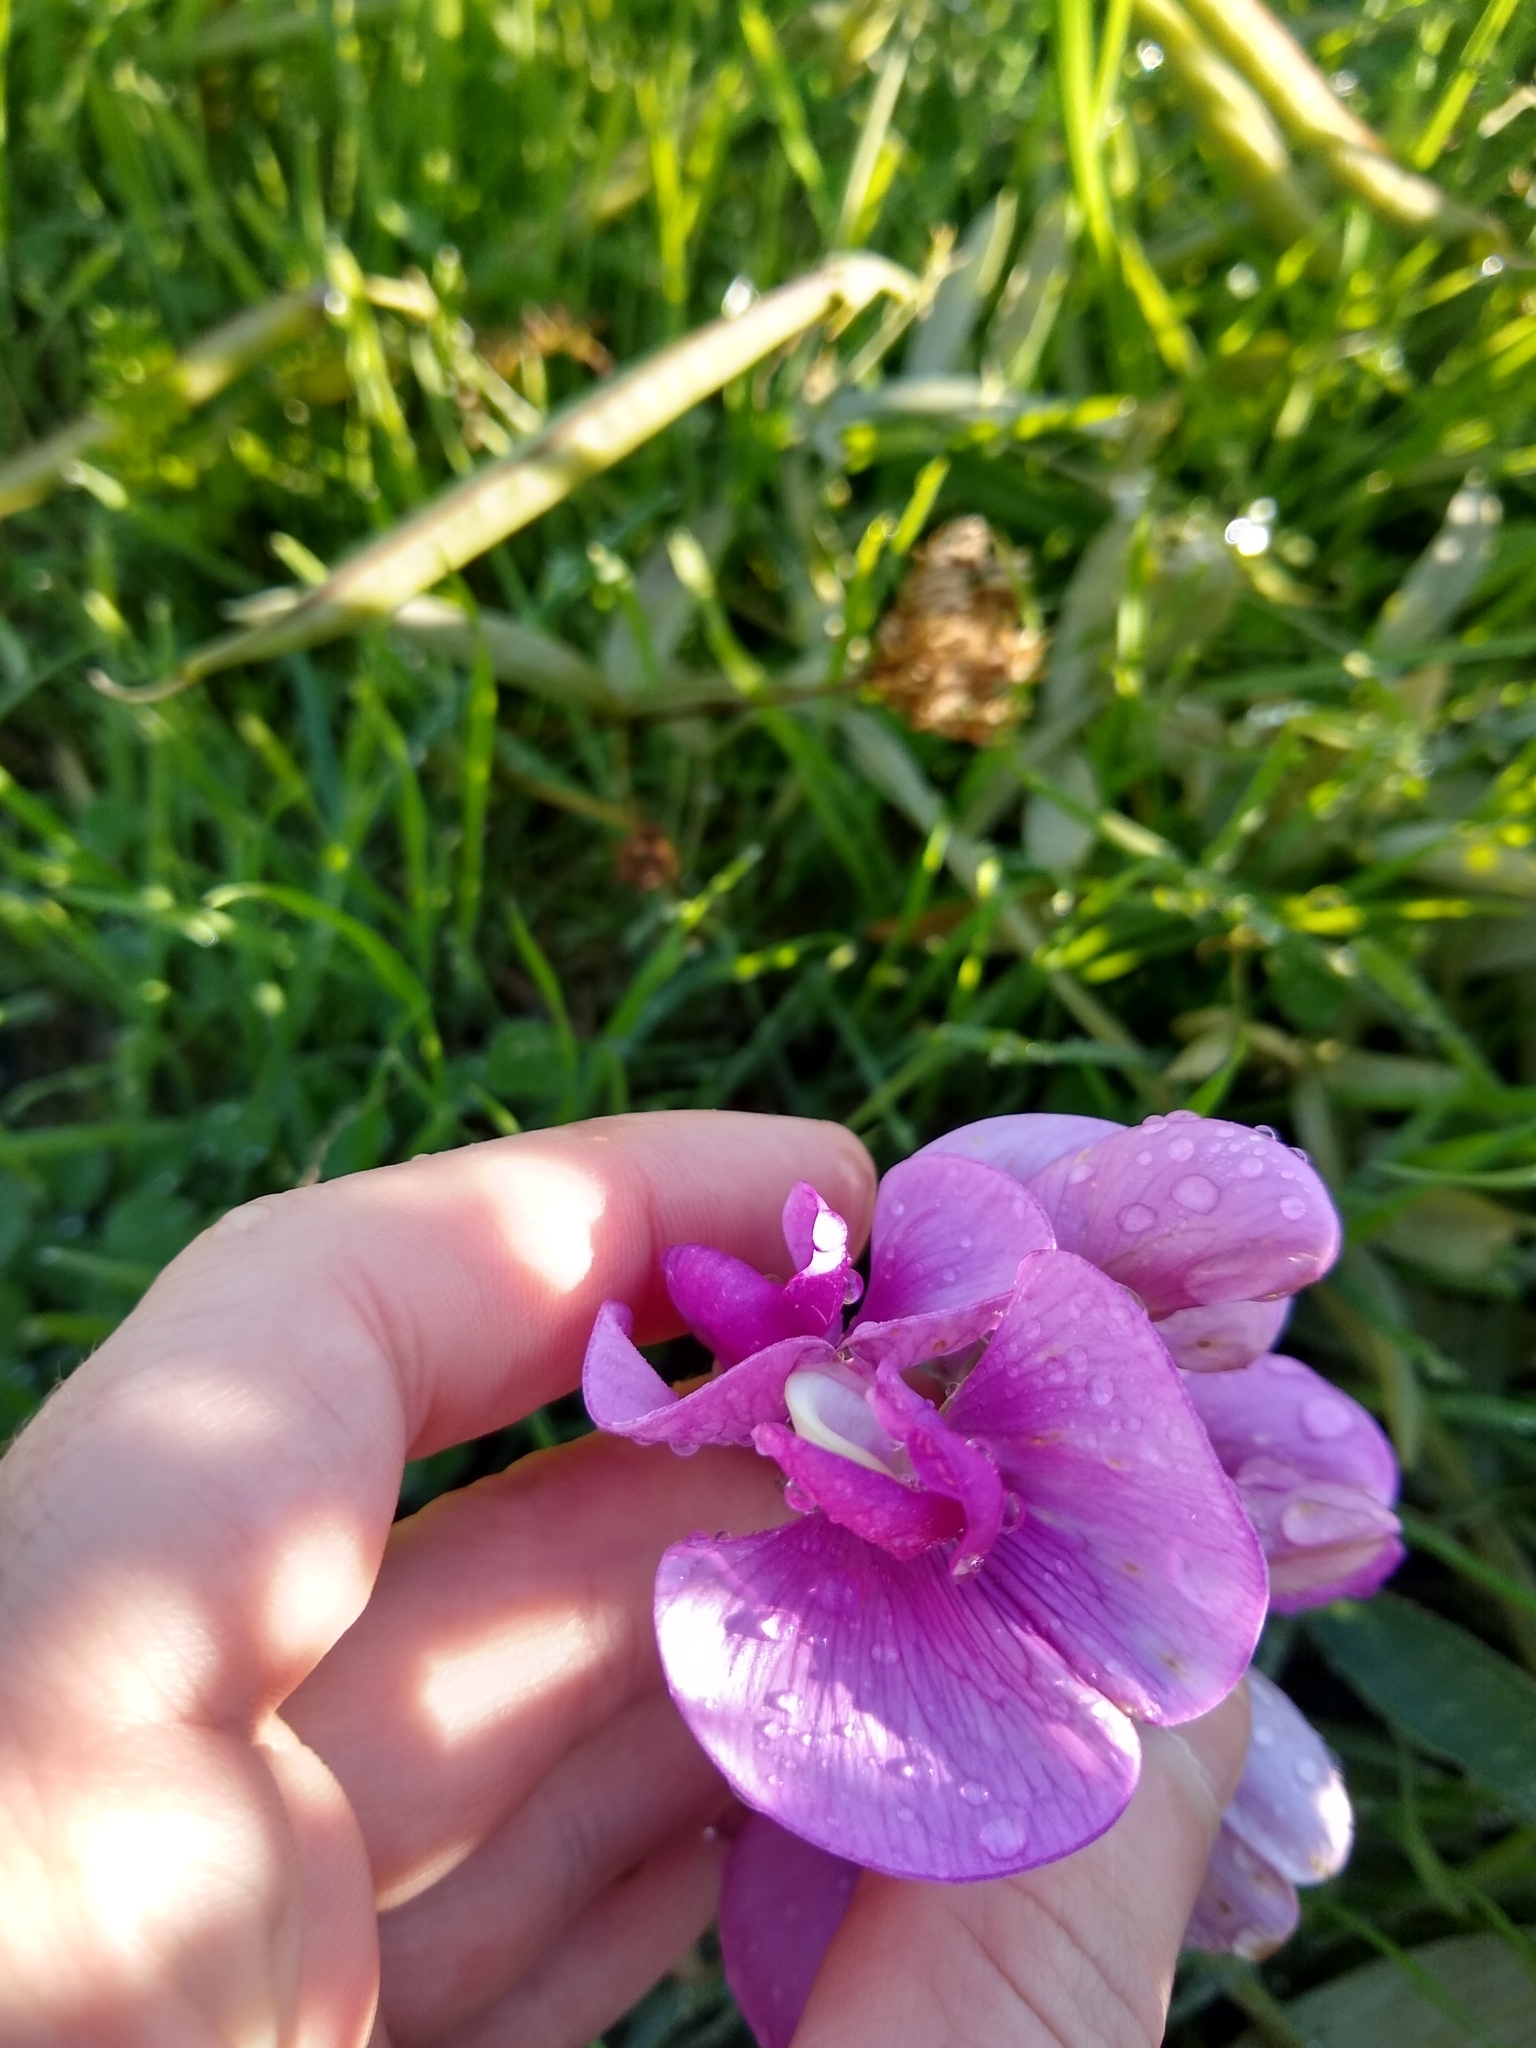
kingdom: Plantae
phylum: Tracheophyta
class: Magnoliopsida
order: Fabales
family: Fabaceae
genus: Lathyrus
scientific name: Lathyrus latifolius
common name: Perennial pea
